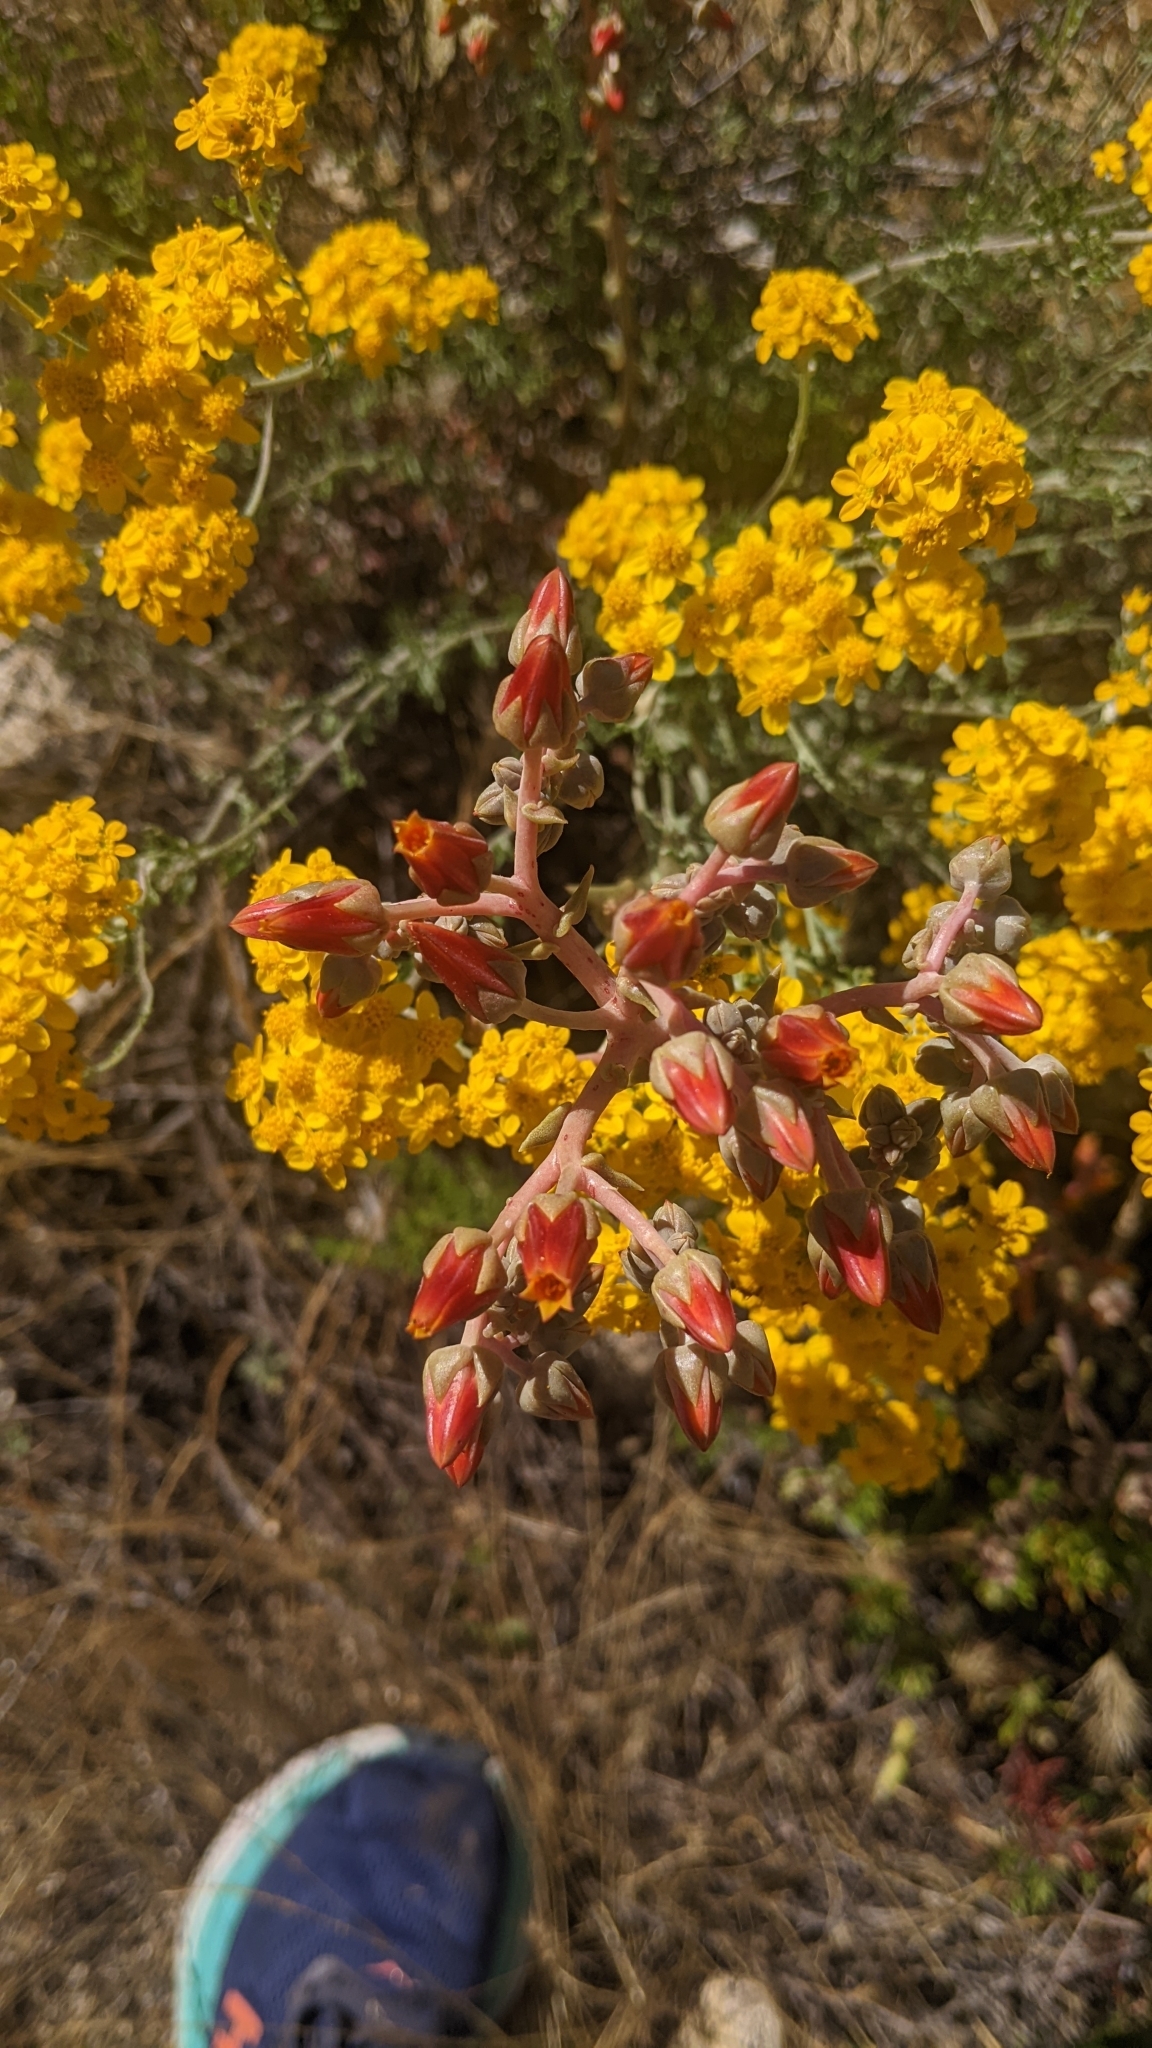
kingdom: Plantae
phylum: Tracheophyta
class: Magnoliopsida
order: Saxifragales
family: Crassulaceae
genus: Dudleya
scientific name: Dudleya lanceolata
